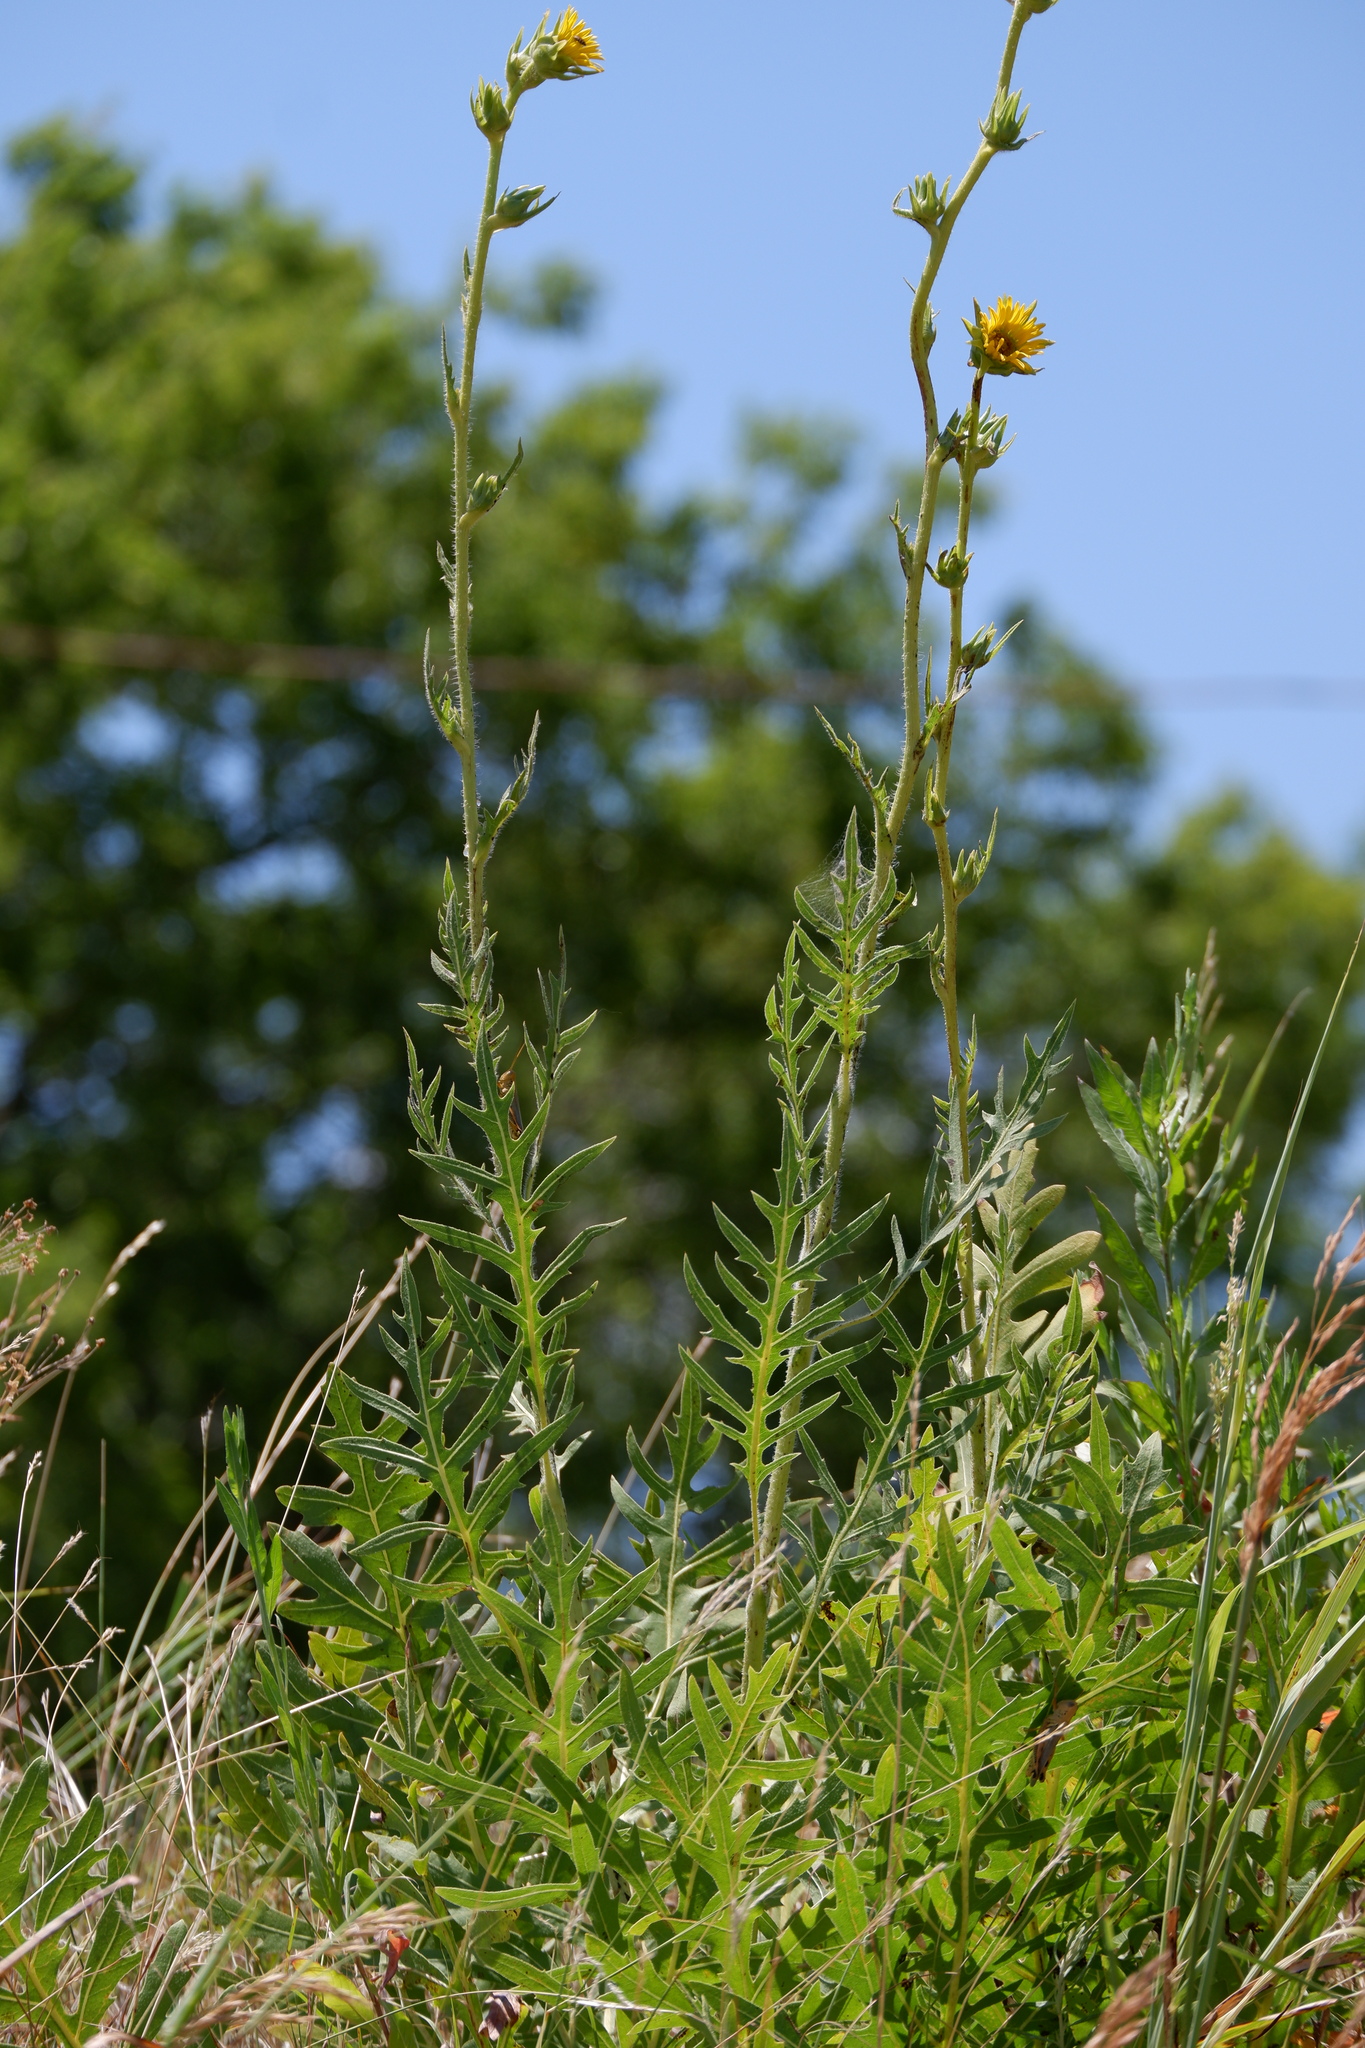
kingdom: Plantae
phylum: Tracheophyta
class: Magnoliopsida
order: Asterales
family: Asteraceae
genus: Silphium
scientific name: Silphium laciniatum
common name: Polarplant
